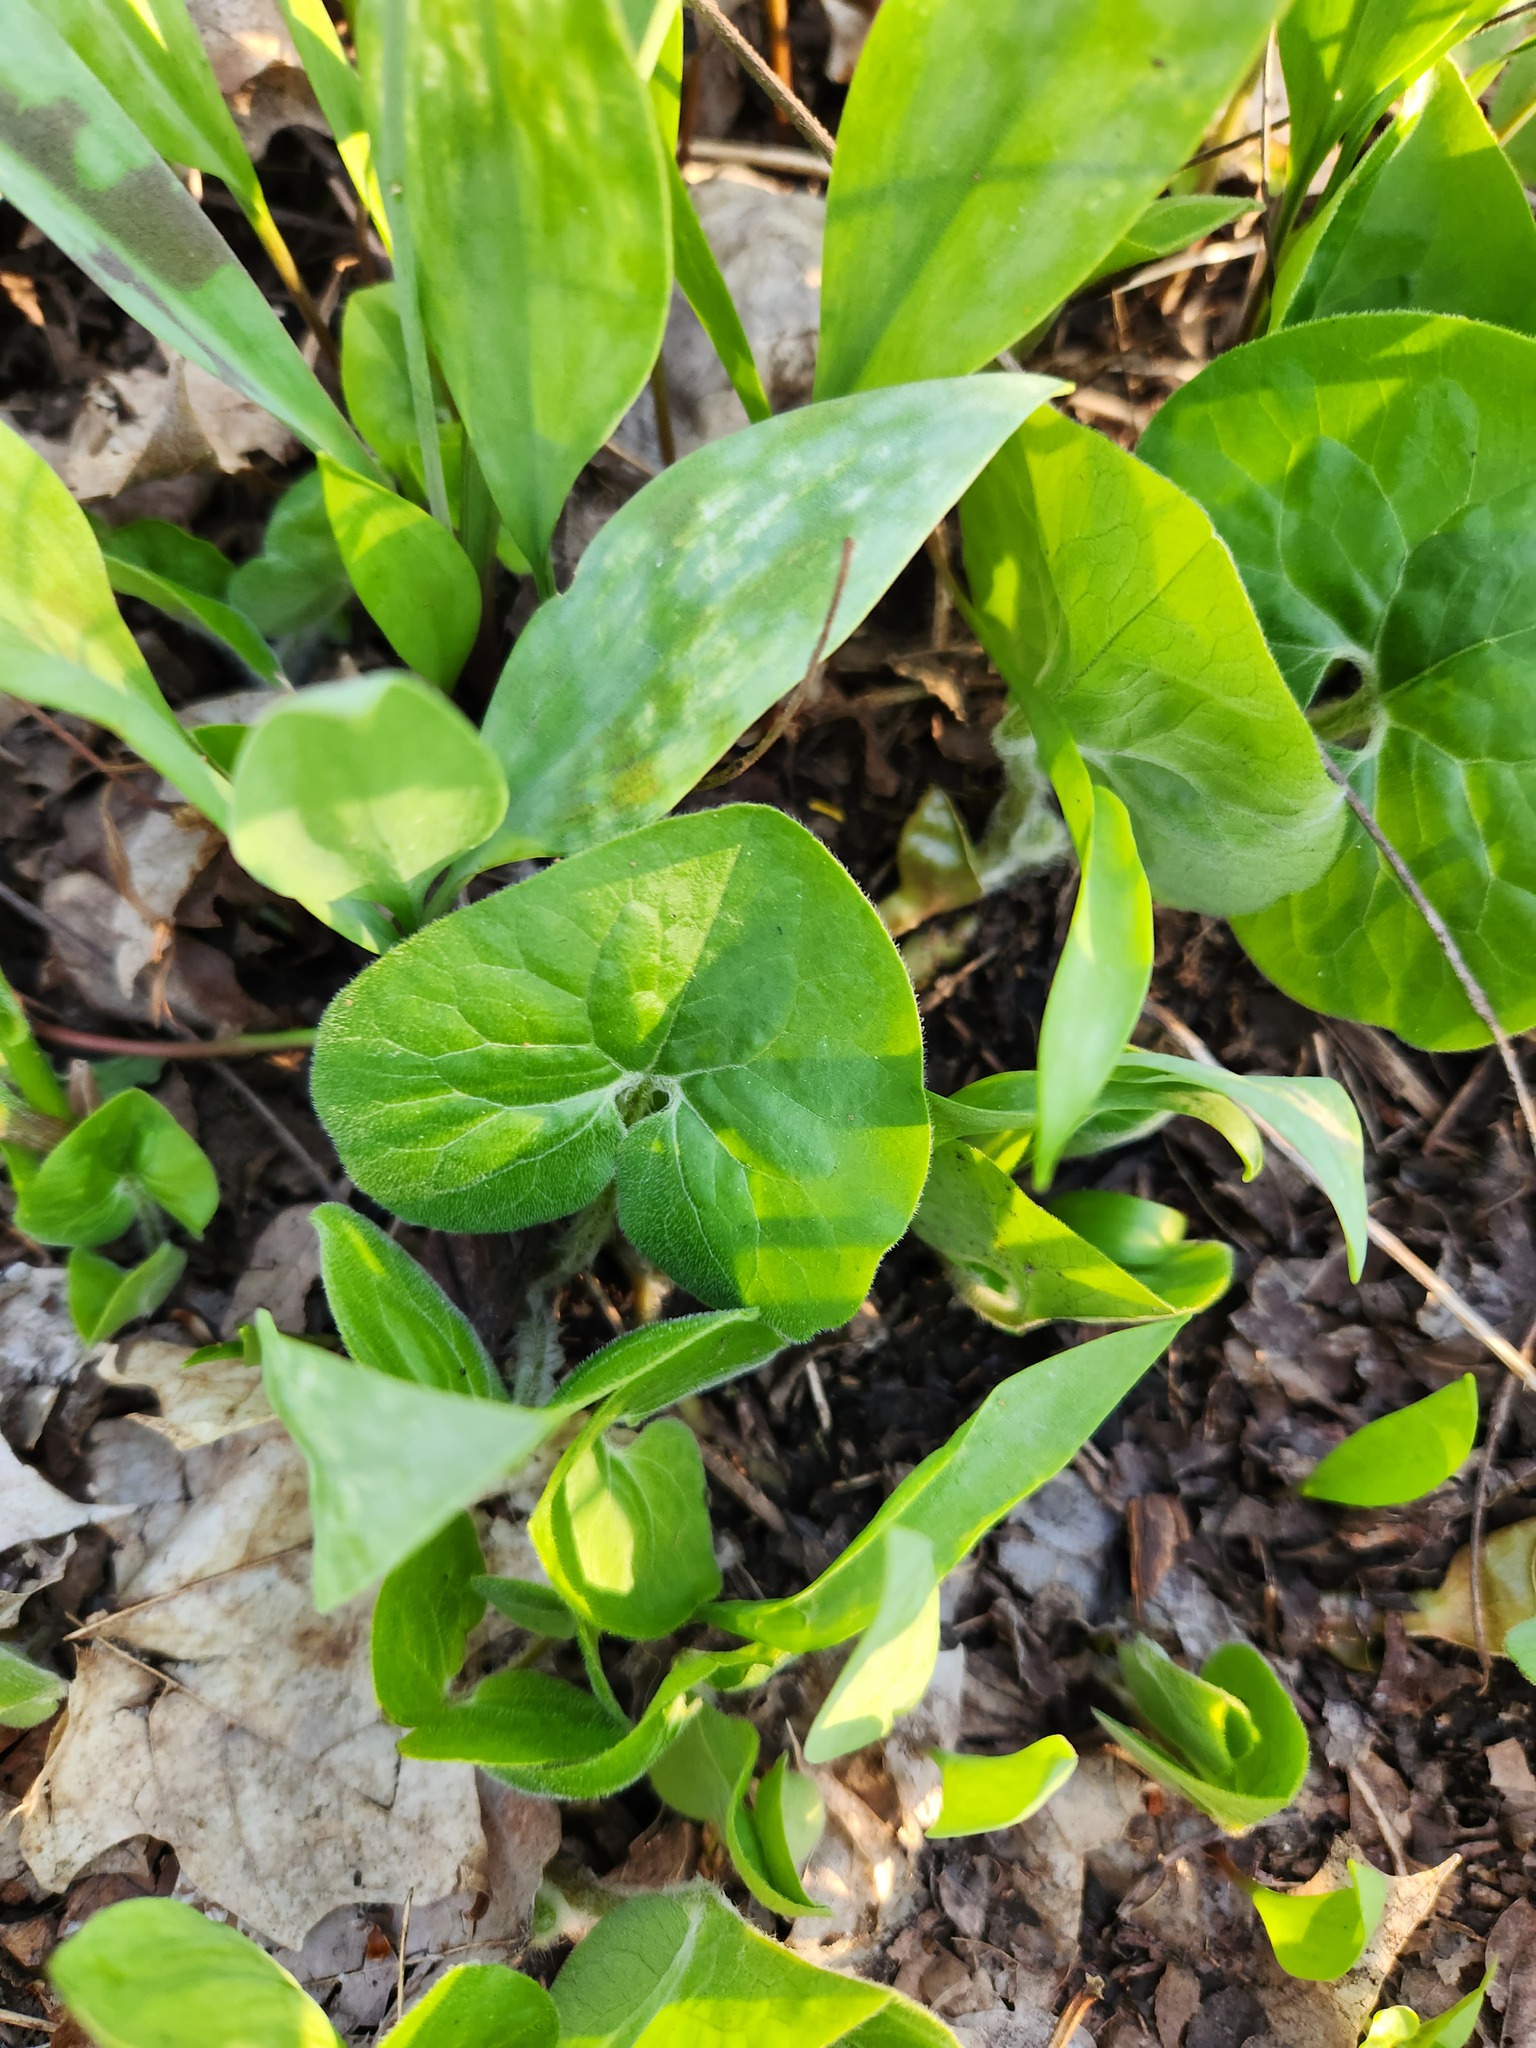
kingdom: Plantae
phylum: Tracheophyta
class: Magnoliopsida
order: Piperales
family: Aristolochiaceae
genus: Asarum
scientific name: Asarum canadense
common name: Wild ginger
